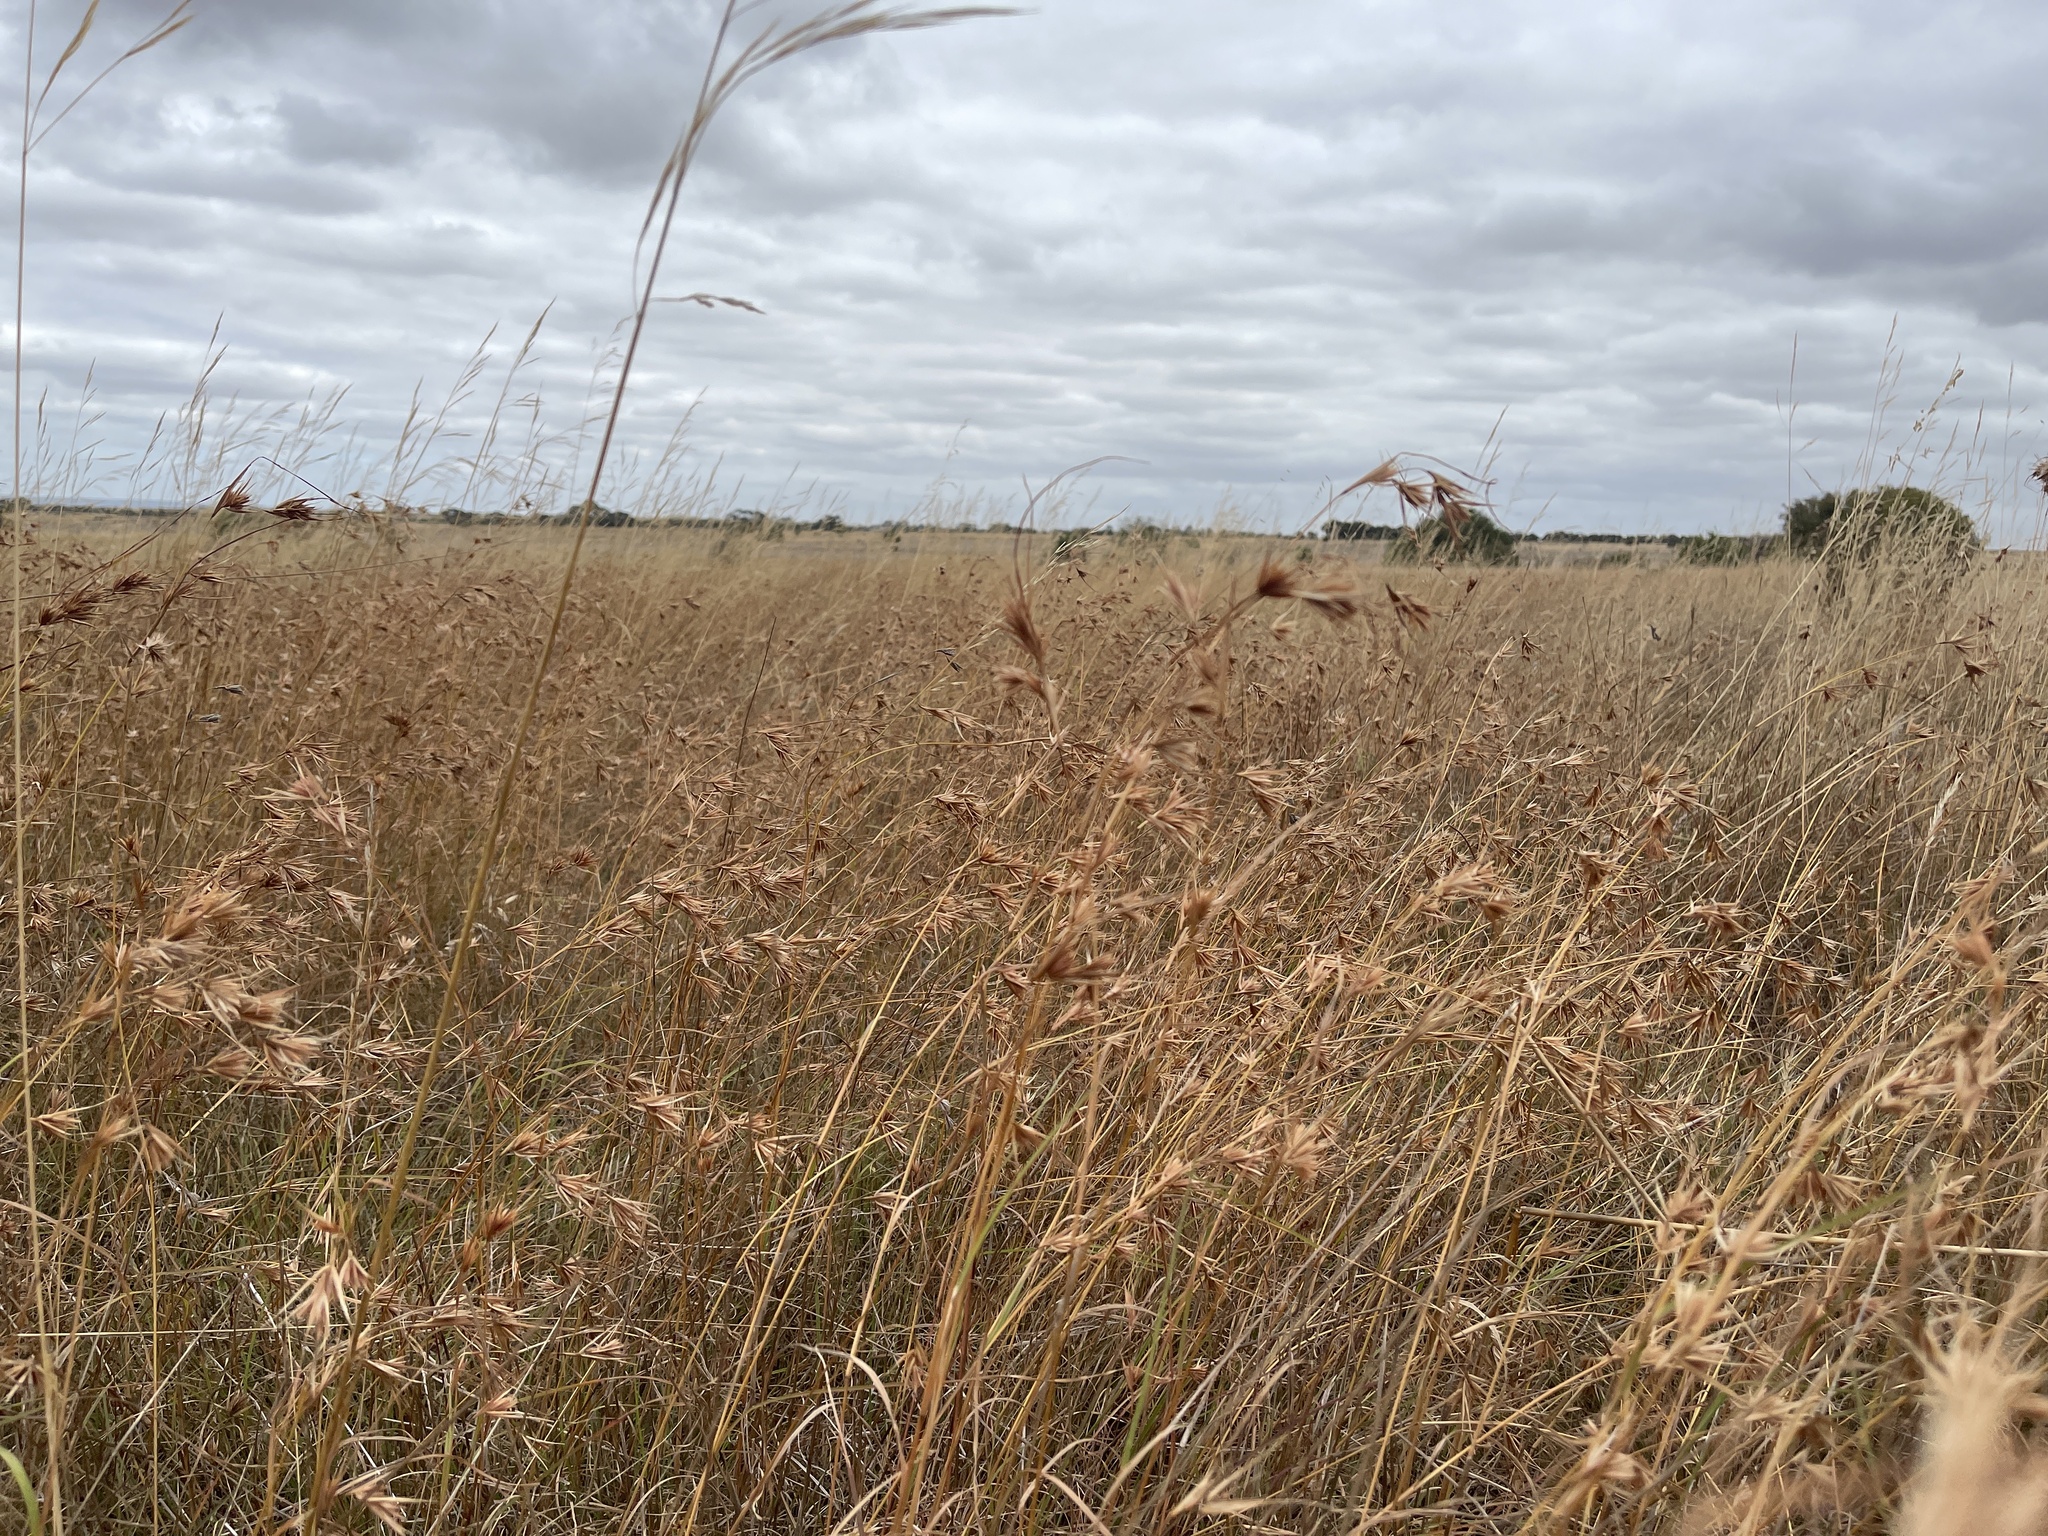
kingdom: Plantae
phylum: Tracheophyta
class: Liliopsida
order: Poales
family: Poaceae
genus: Themeda
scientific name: Themeda triandra
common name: Kangaroo grass
